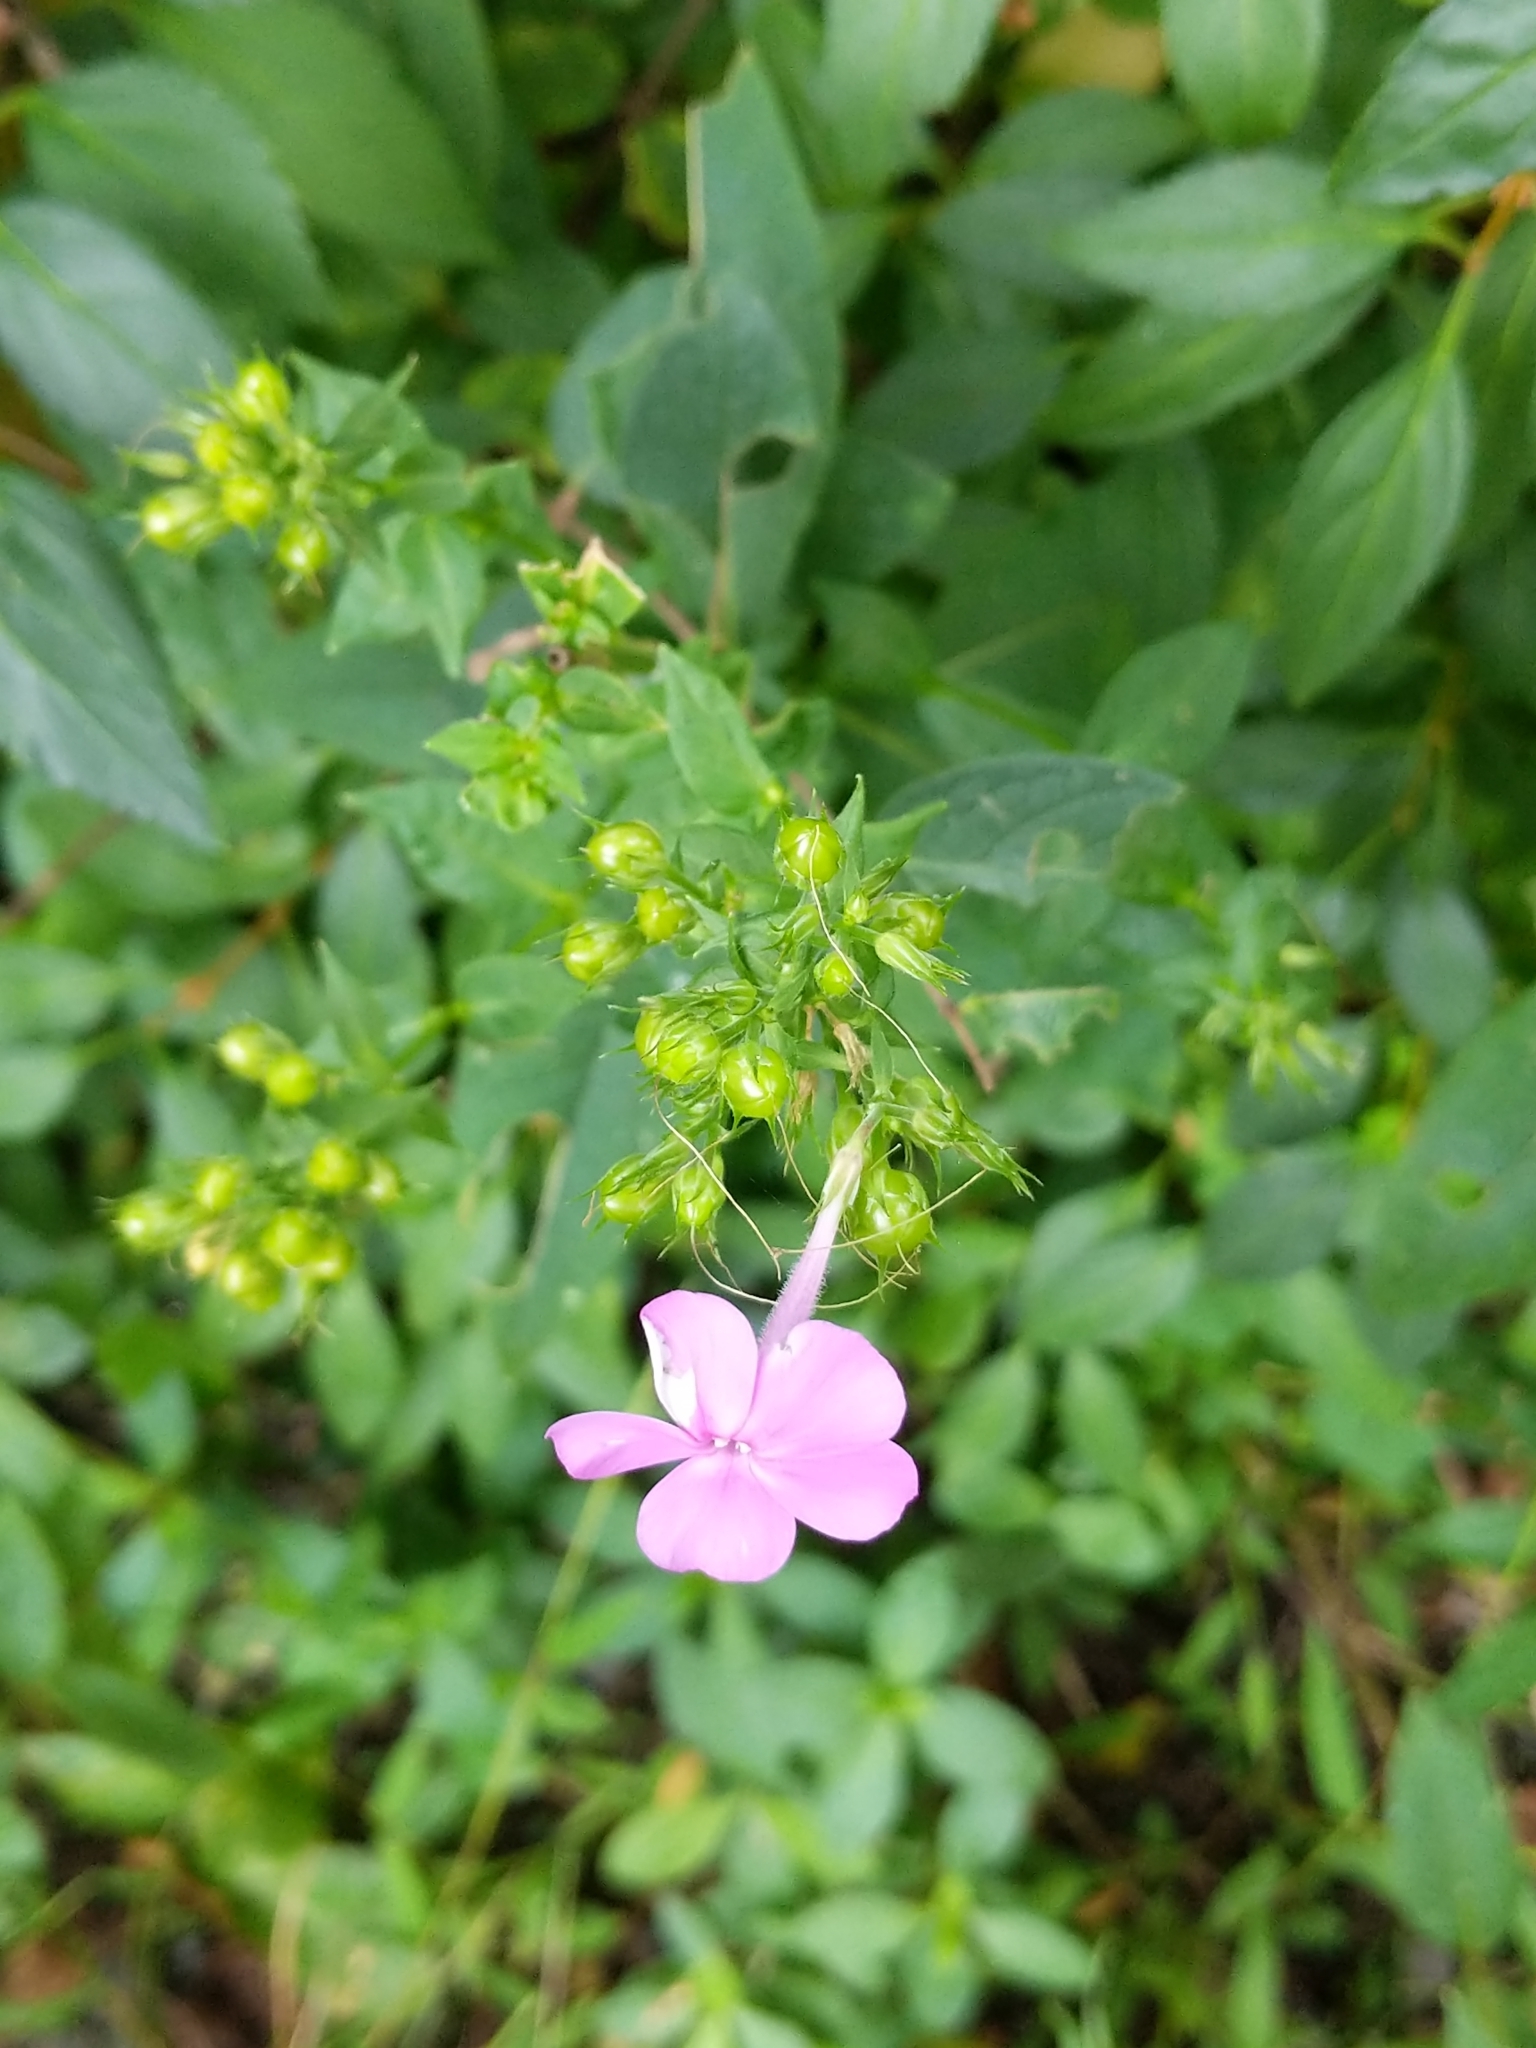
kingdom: Plantae
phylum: Tracheophyta
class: Magnoliopsida
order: Ericales
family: Polemoniaceae
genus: Phlox
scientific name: Phlox paniculata
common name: Fall phlox
